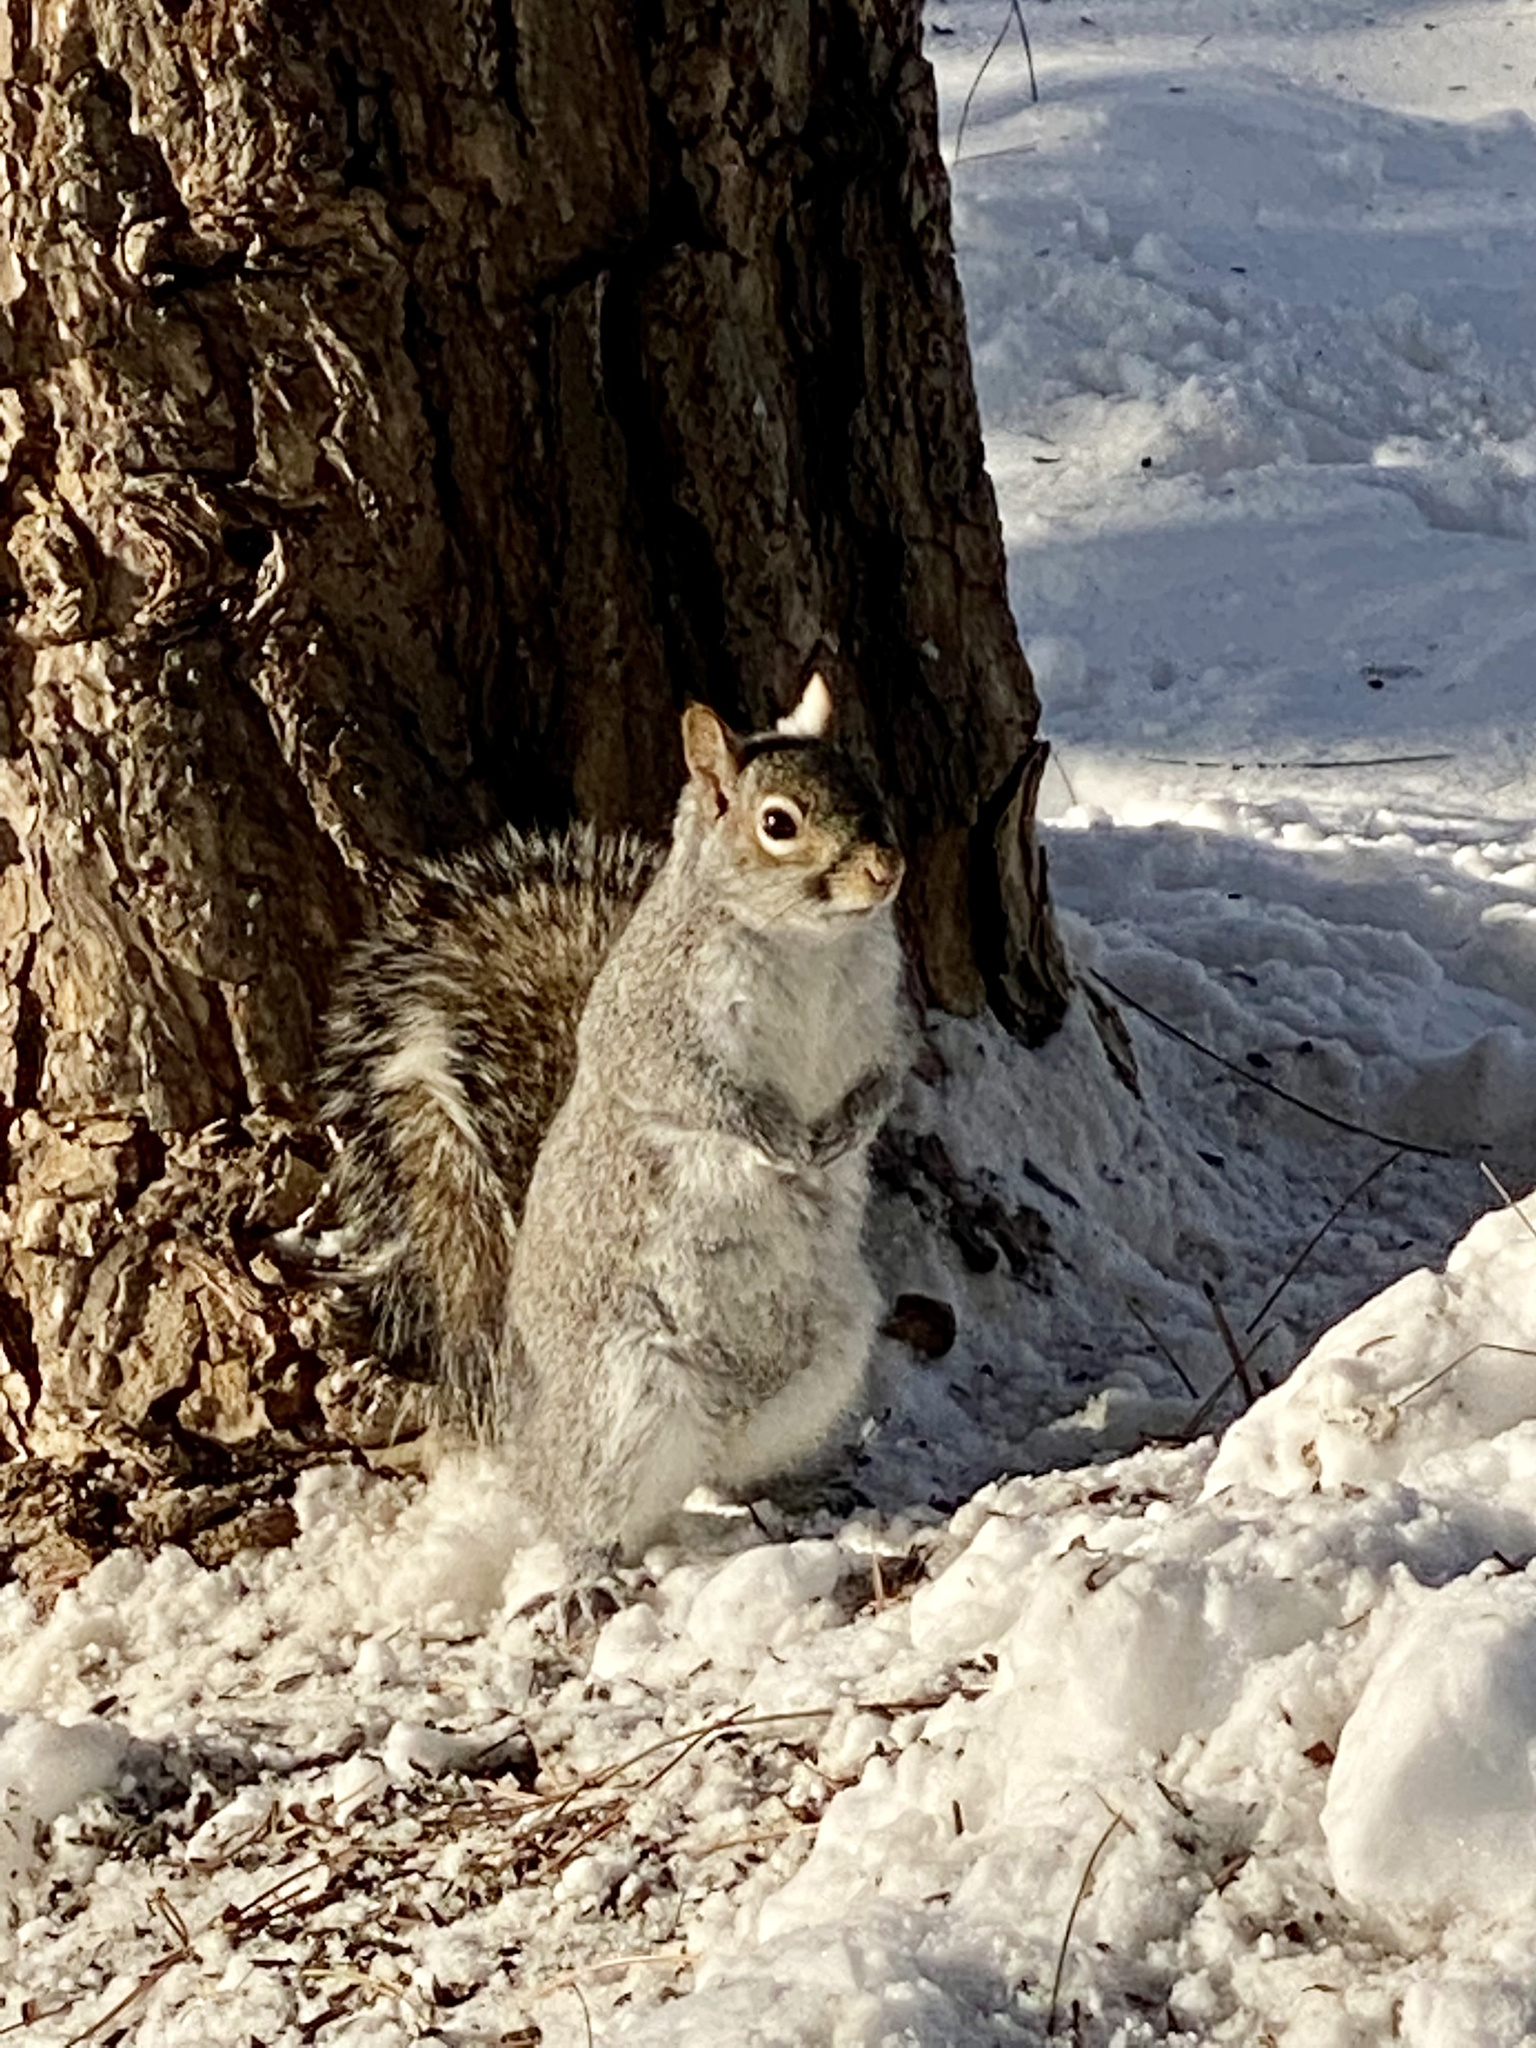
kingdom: Animalia
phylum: Chordata
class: Mammalia
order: Rodentia
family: Sciuridae
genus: Sciurus
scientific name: Sciurus carolinensis
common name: Eastern gray squirrel
